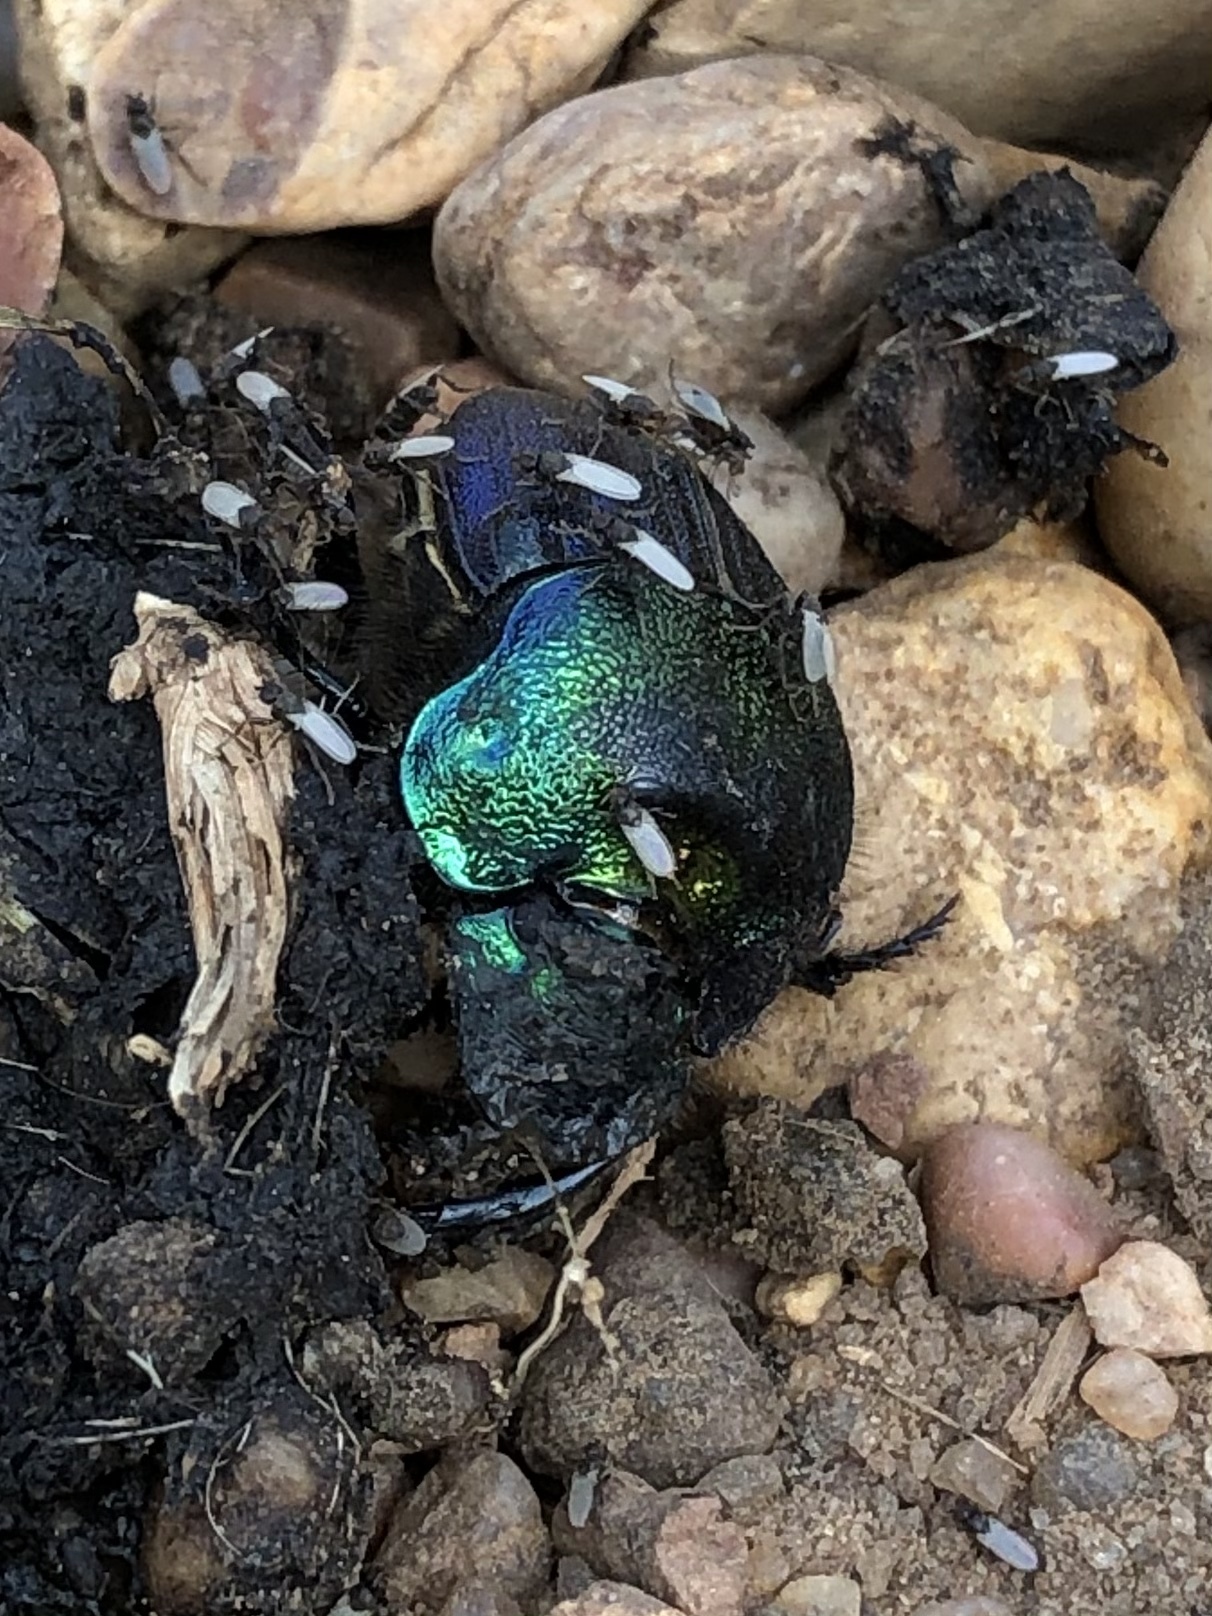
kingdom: Animalia
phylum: Arthropoda
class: Insecta
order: Coleoptera
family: Scarabaeidae
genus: Phanaeus
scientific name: Phanaeus difformis
